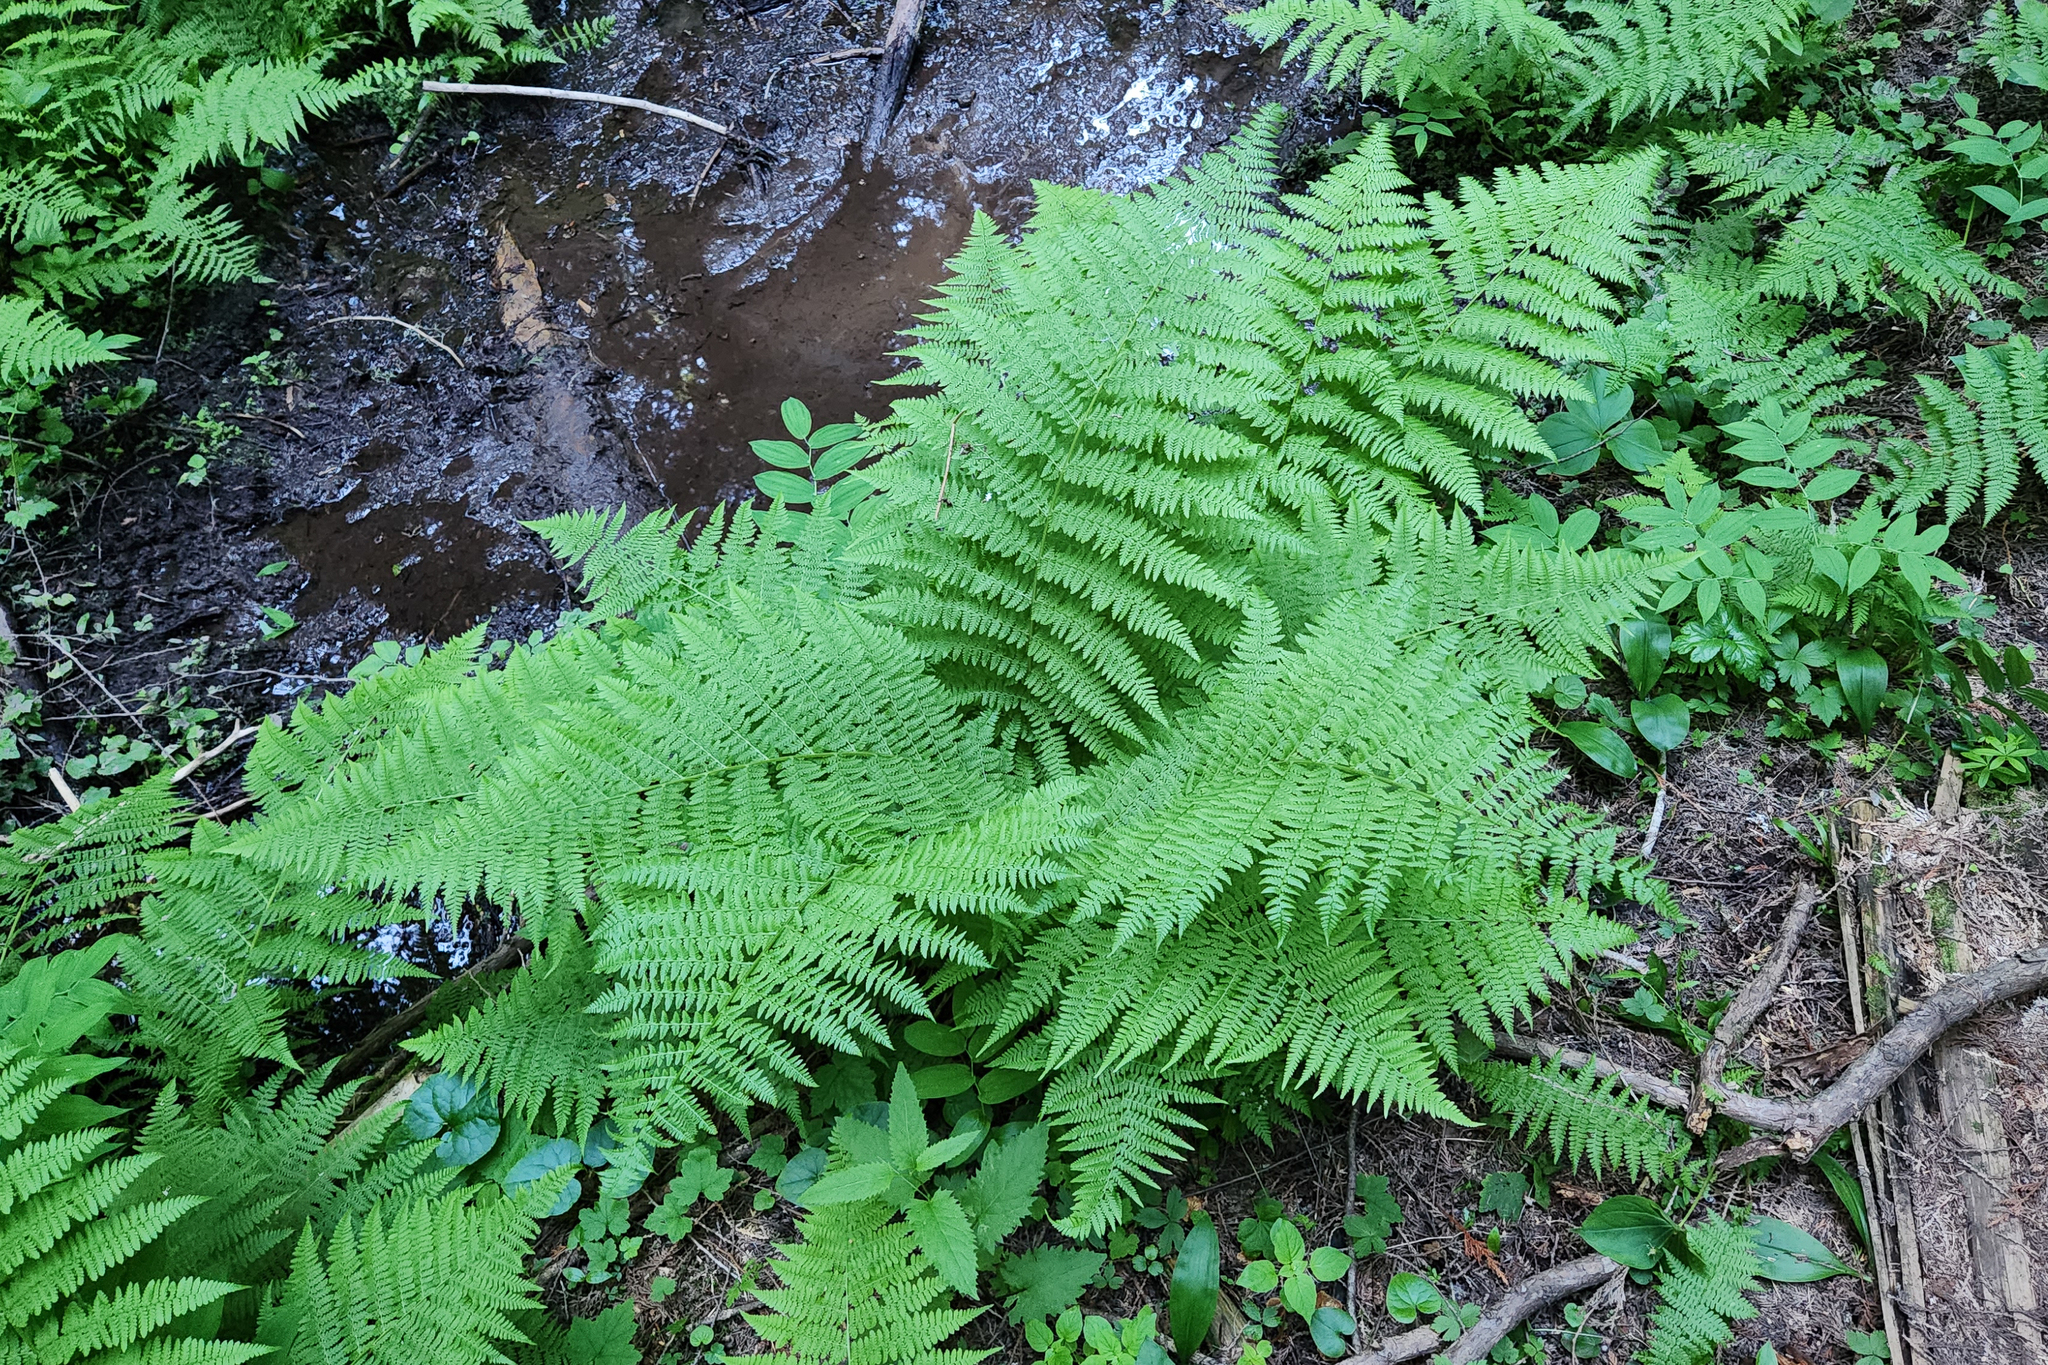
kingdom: Plantae
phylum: Tracheophyta
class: Polypodiopsida
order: Polypodiales
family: Athyriaceae
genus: Athyrium
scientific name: Athyrium cyclosorum
